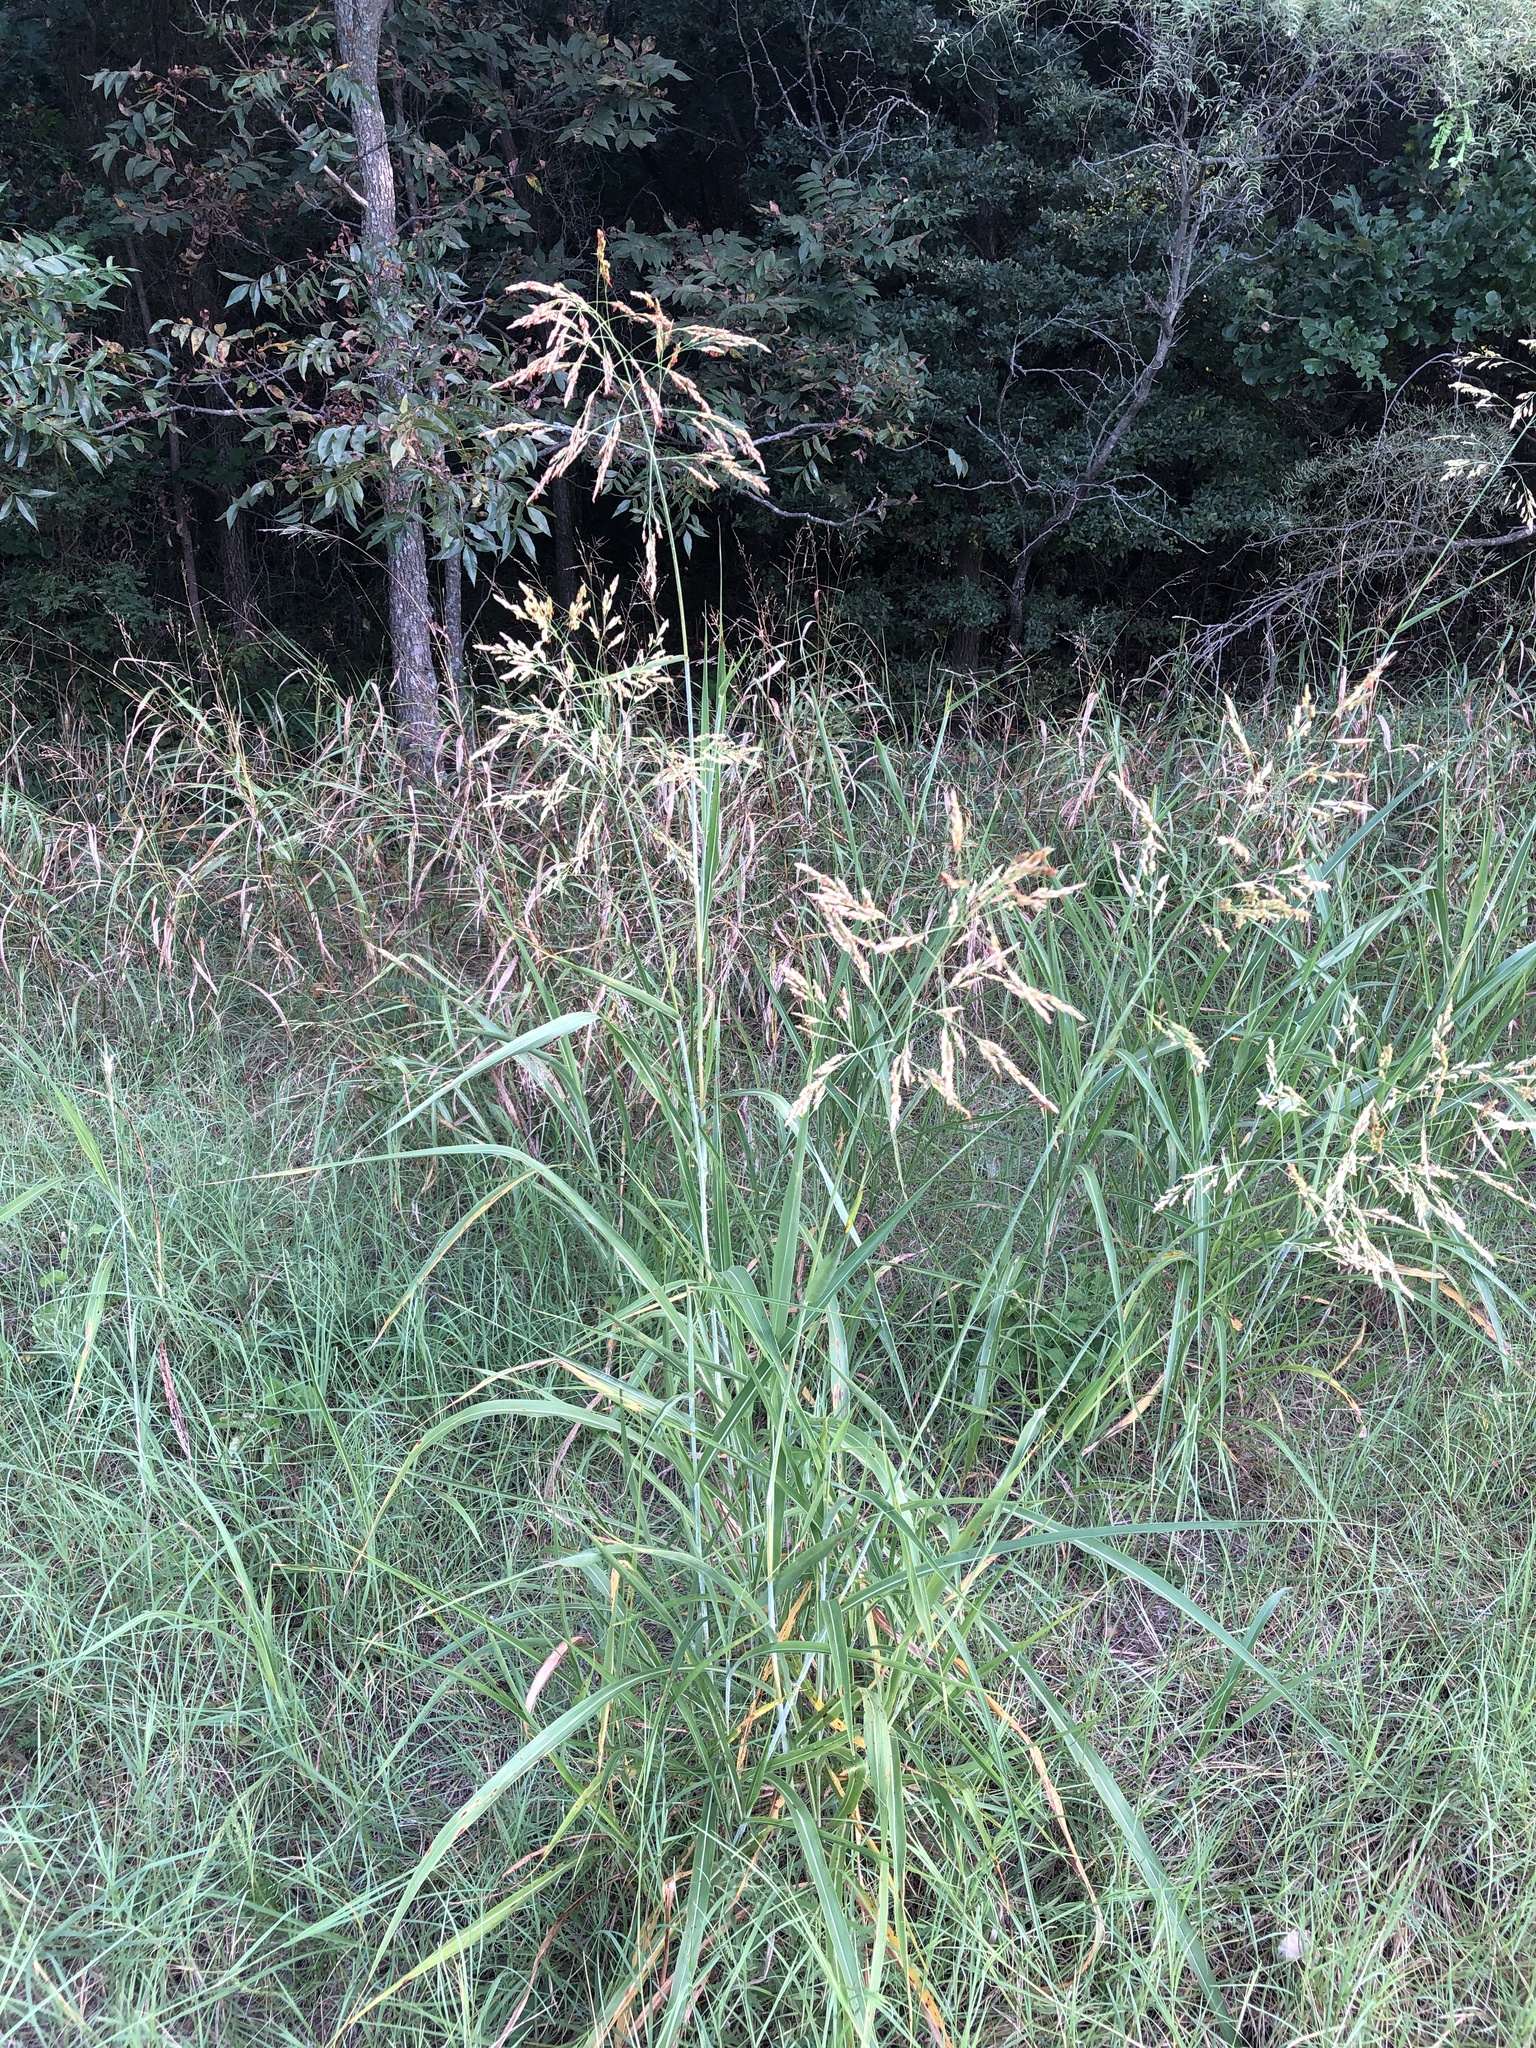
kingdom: Plantae
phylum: Tracheophyta
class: Liliopsida
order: Poales
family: Poaceae
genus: Sorghum
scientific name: Sorghum halepense
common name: Johnson-grass
